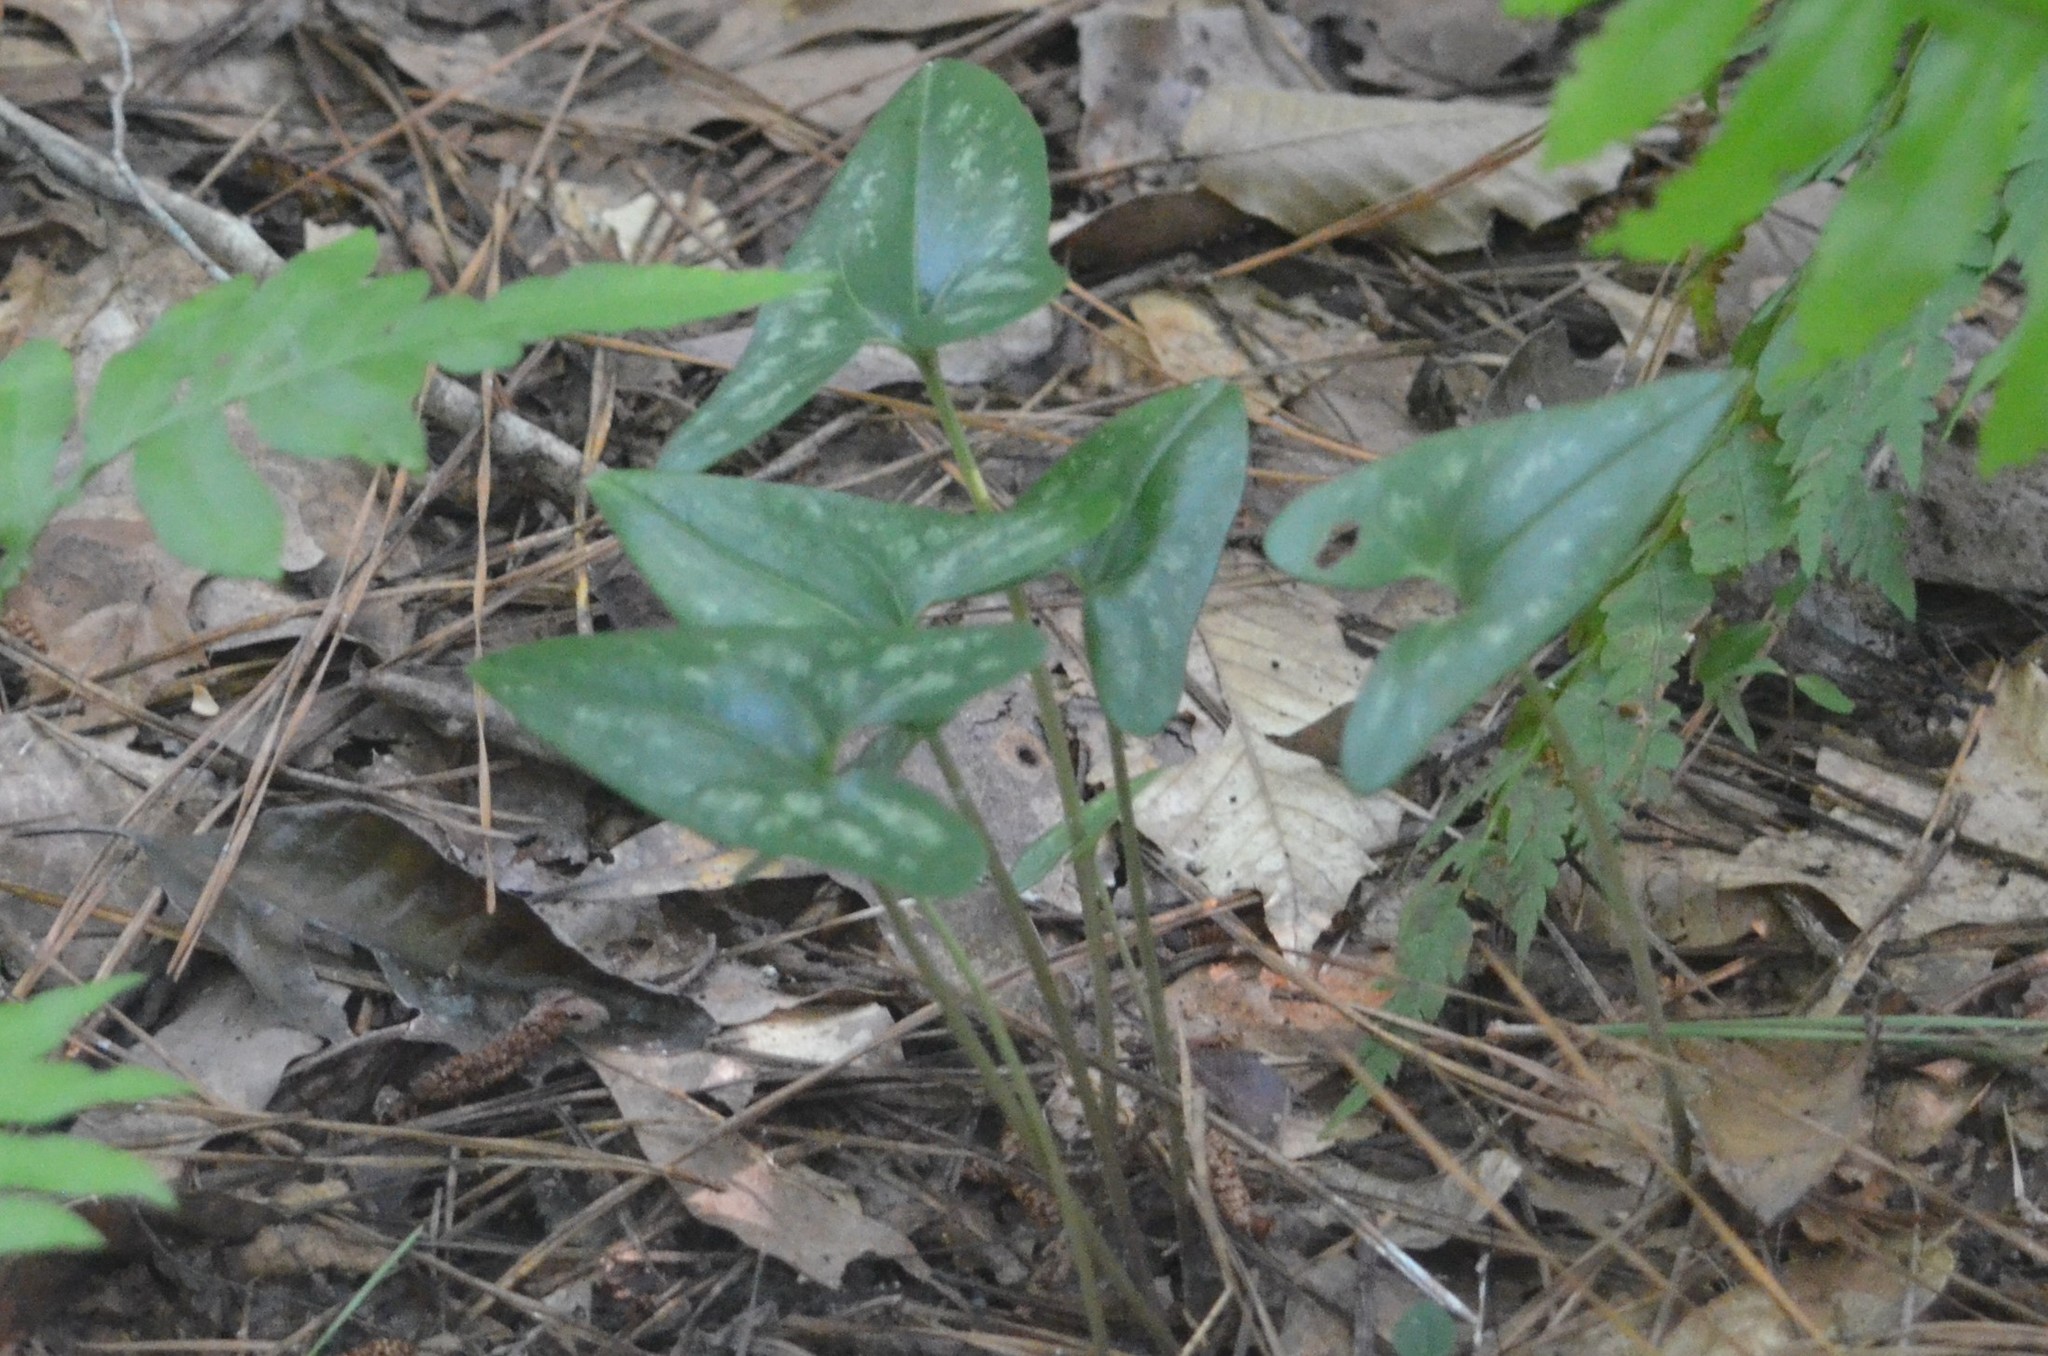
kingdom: Plantae
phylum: Tracheophyta
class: Magnoliopsida
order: Piperales
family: Aristolochiaceae
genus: Hexastylis
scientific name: Hexastylis arifolia
